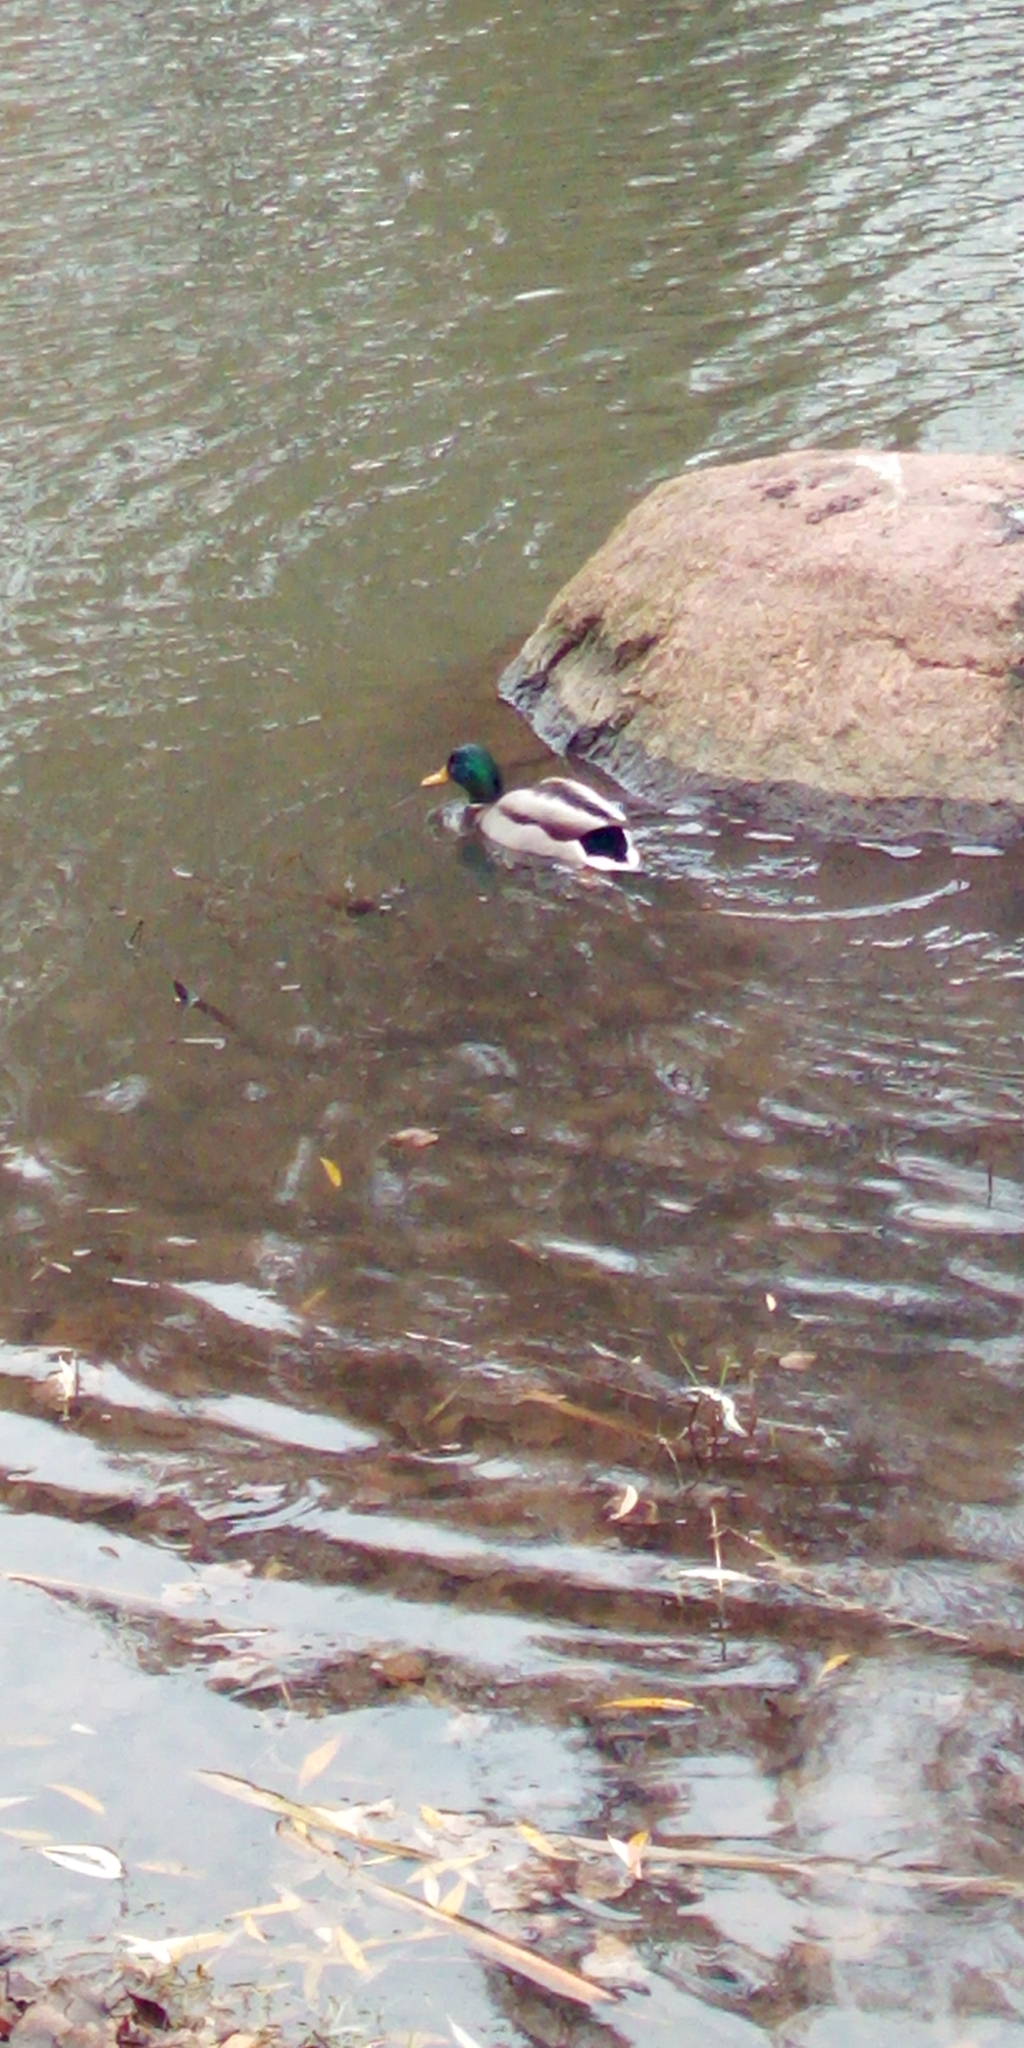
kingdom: Animalia
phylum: Chordata
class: Aves
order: Anseriformes
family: Anatidae
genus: Anas
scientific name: Anas platyrhynchos
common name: Mallard
